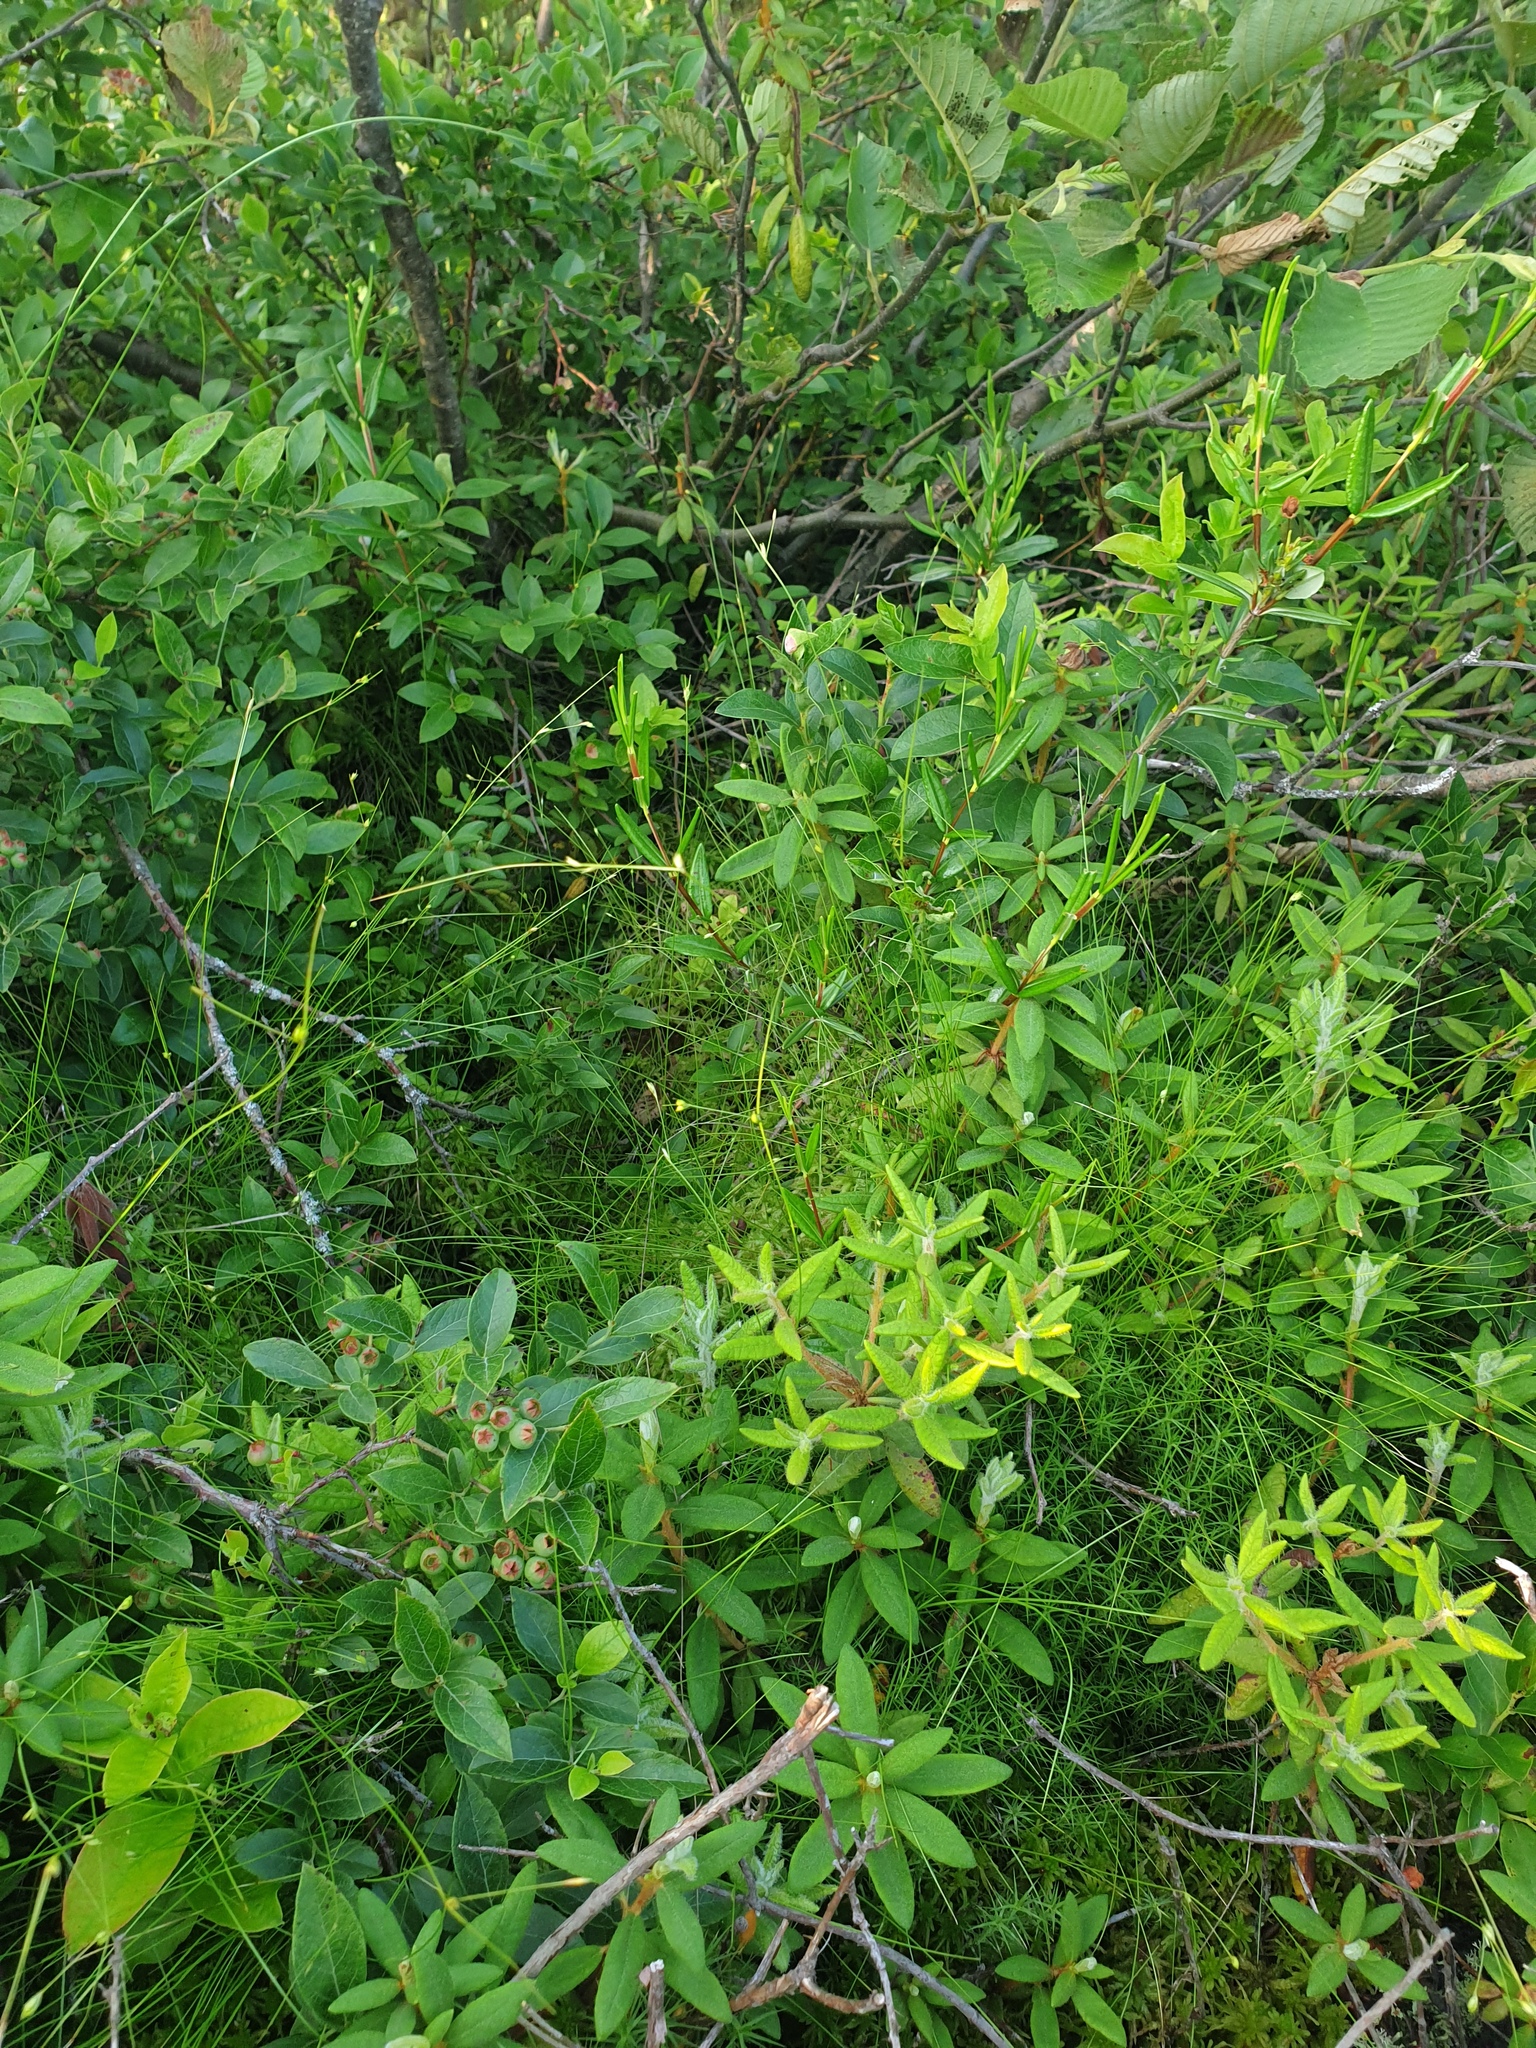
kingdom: Plantae
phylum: Tracheophyta
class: Liliopsida
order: Poales
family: Cyperaceae
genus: Carex
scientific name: Carex trisperma
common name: Three-seeded sedge
